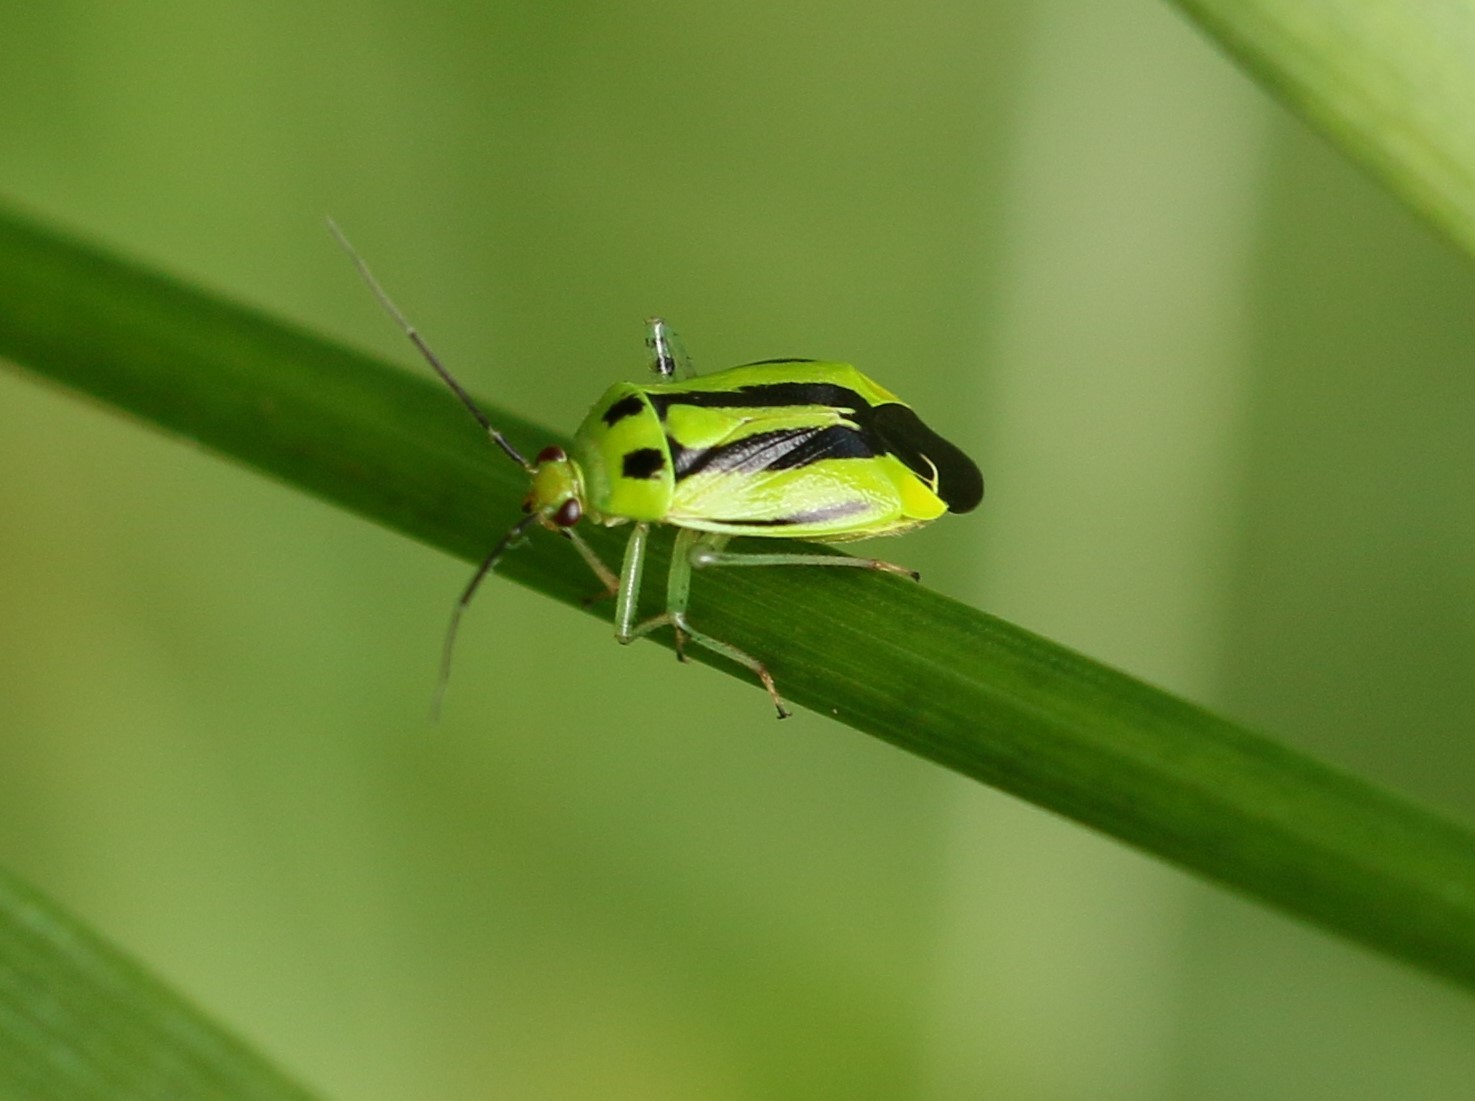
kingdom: Animalia
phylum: Arthropoda
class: Insecta
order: Hemiptera
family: Miridae
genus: Poecilocapsus
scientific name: Poecilocapsus lineatus
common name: Four-lined plant bug
